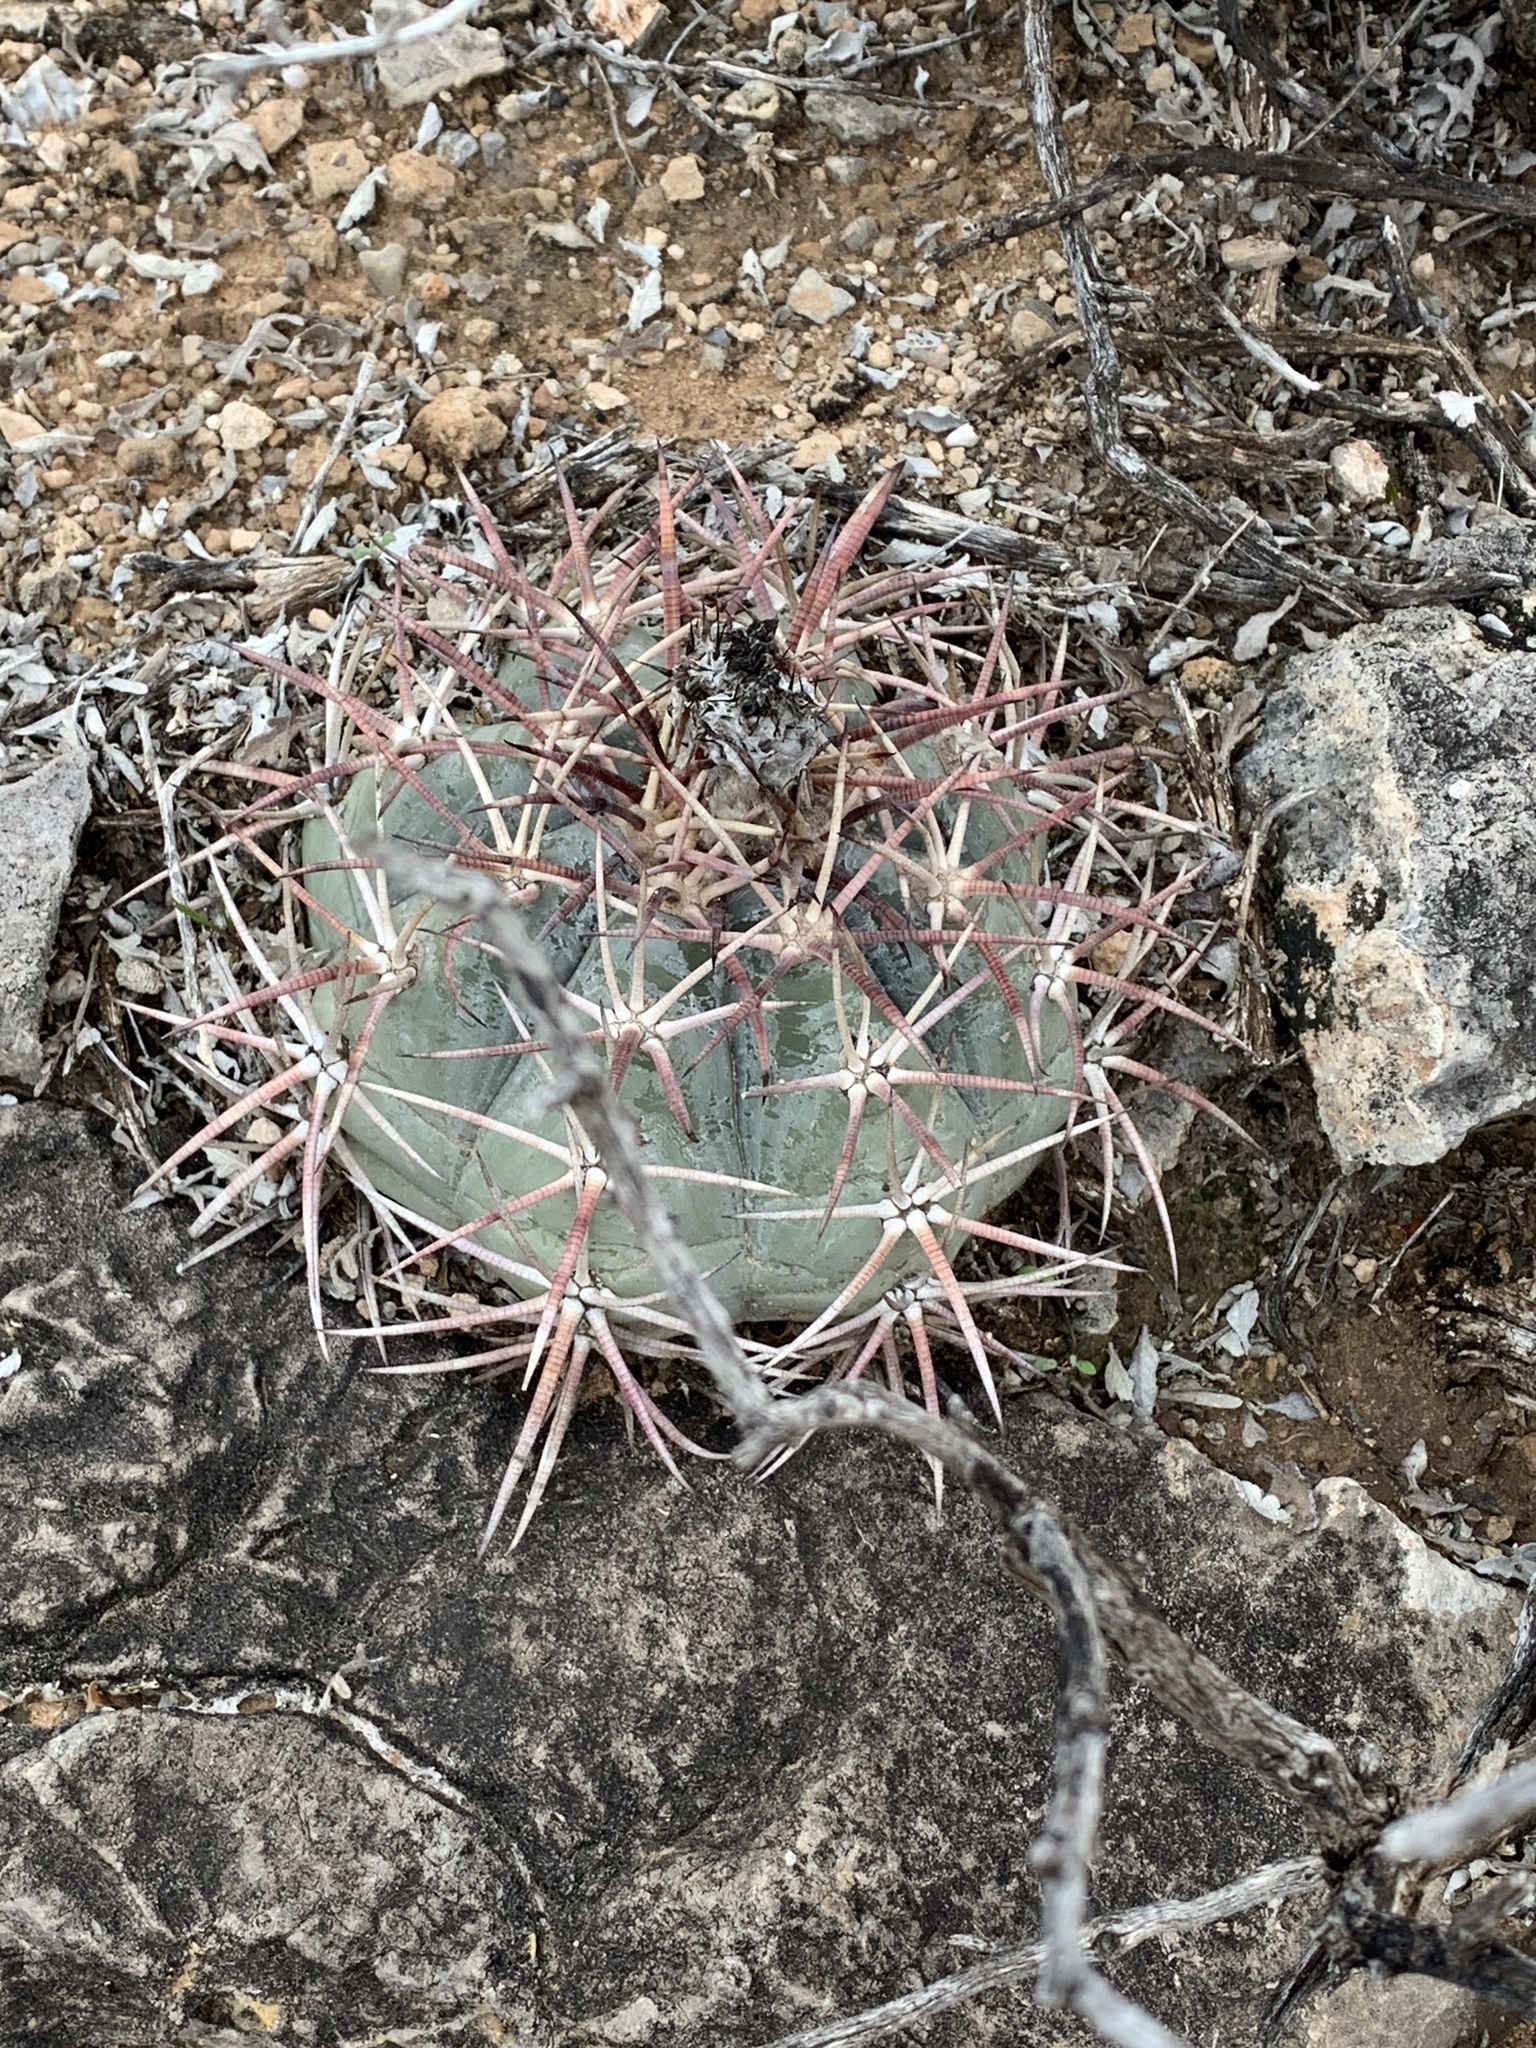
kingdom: Plantae
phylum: Tracheophyta
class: Magnoliopsida
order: Caryophyllales
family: Cactaceae
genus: Echinocactus
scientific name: Echinocactus horizonthalonius
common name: Devilshead
